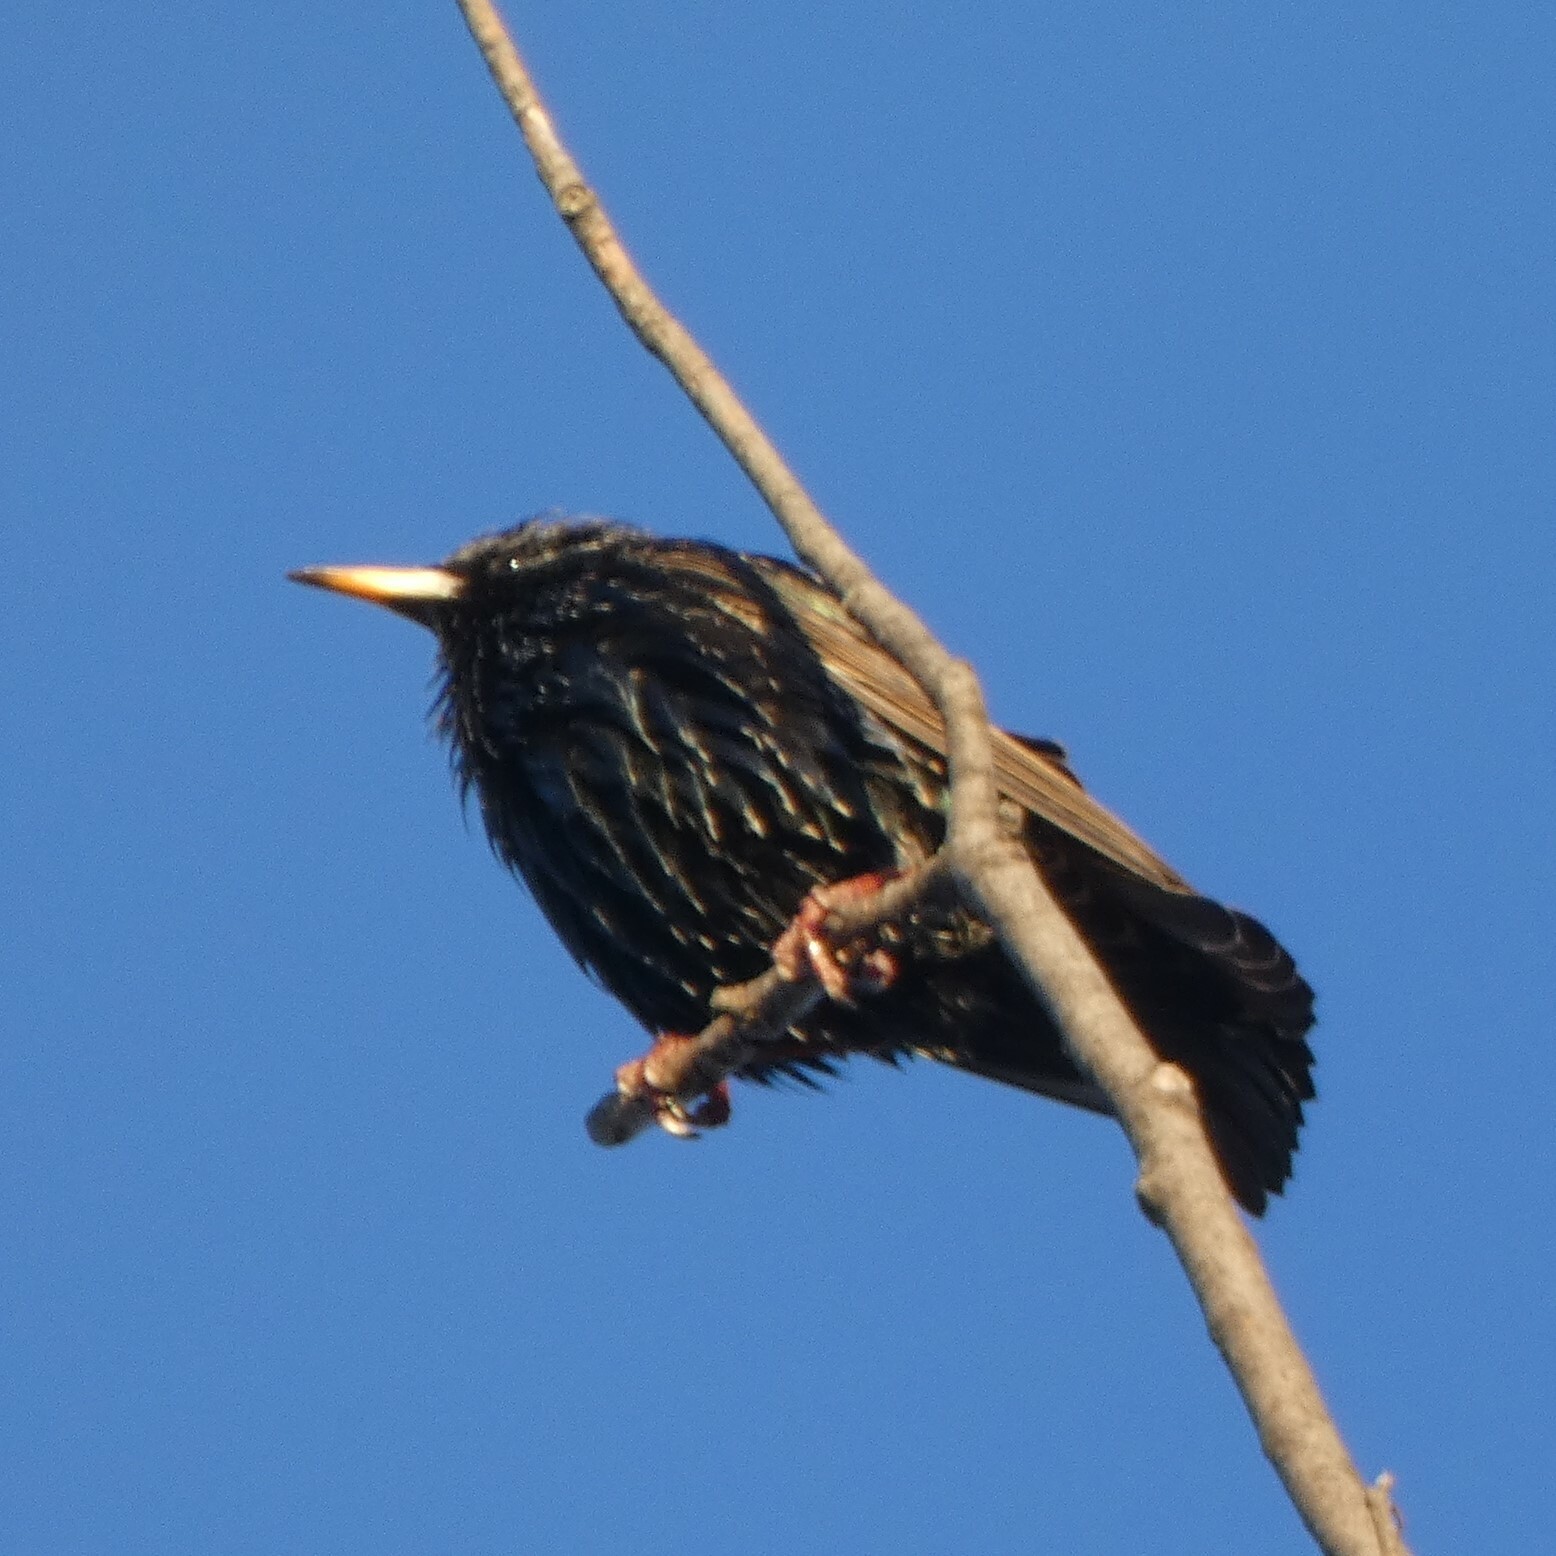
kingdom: Animalia
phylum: Chordata
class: Aves
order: Passeriformes
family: Sturnidae
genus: Sturnus
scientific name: Sturnus vulgaris
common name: Common starling
